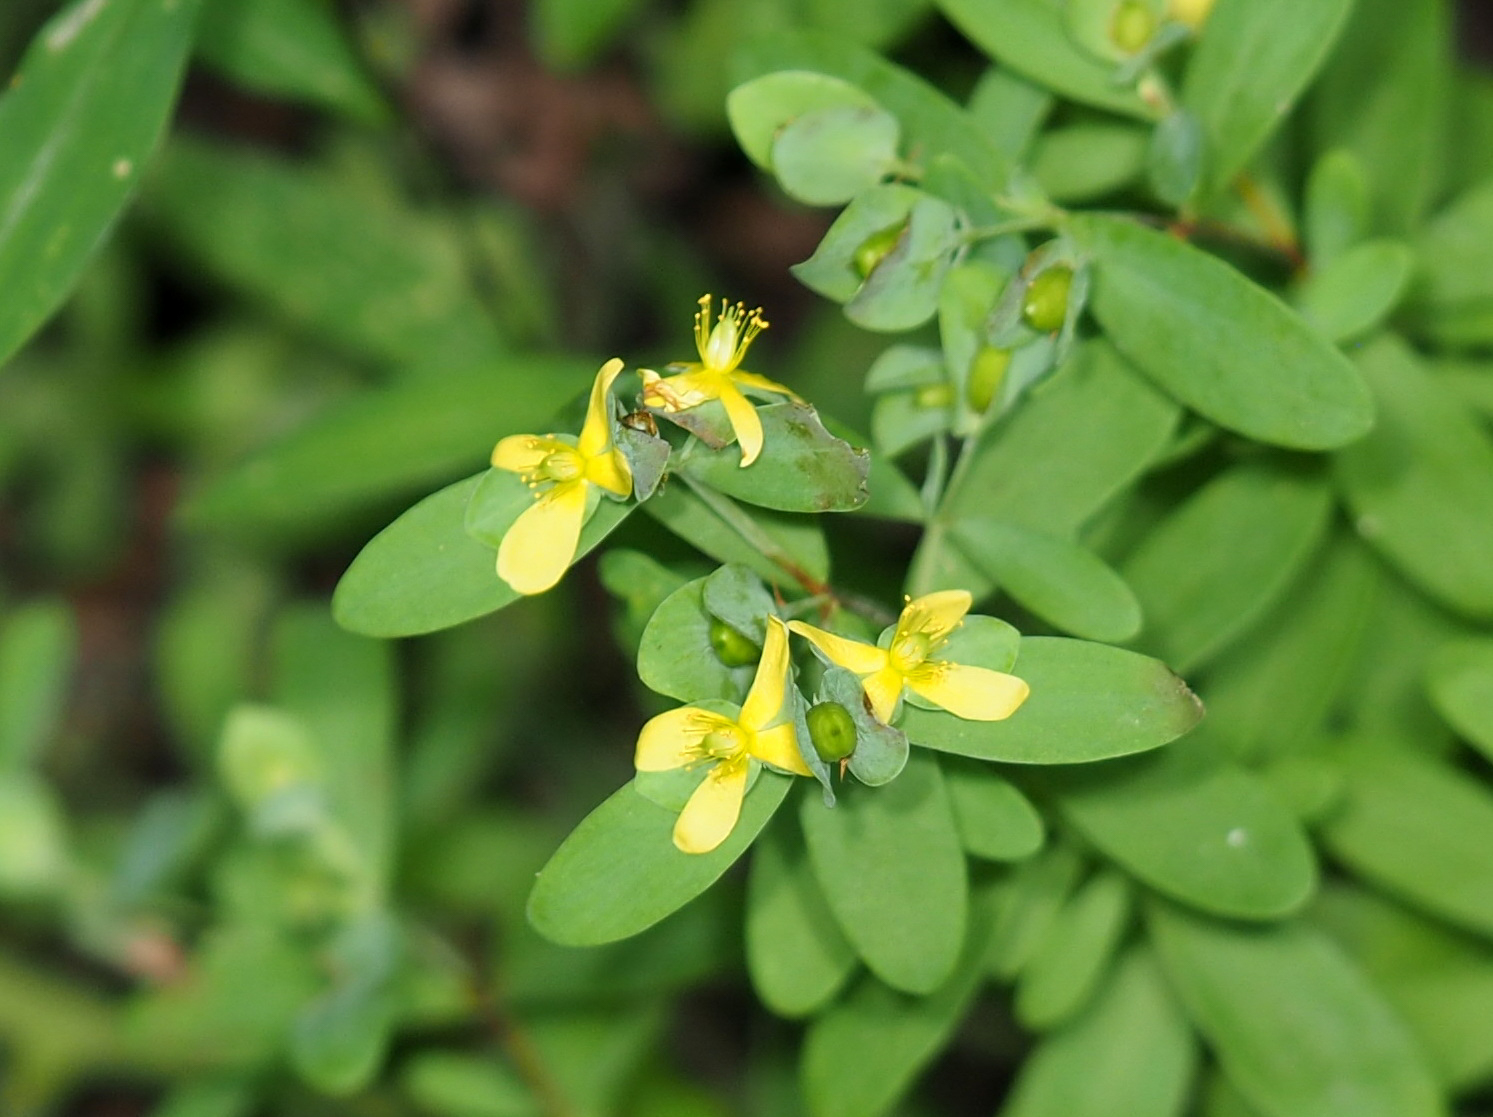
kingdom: Plantae
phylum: Tracheophyta
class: Magnoliopsida
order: Malpighiales
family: Hypericaceae
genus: Hypericum
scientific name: Hypericum hypericoides
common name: St. andrew's cross
